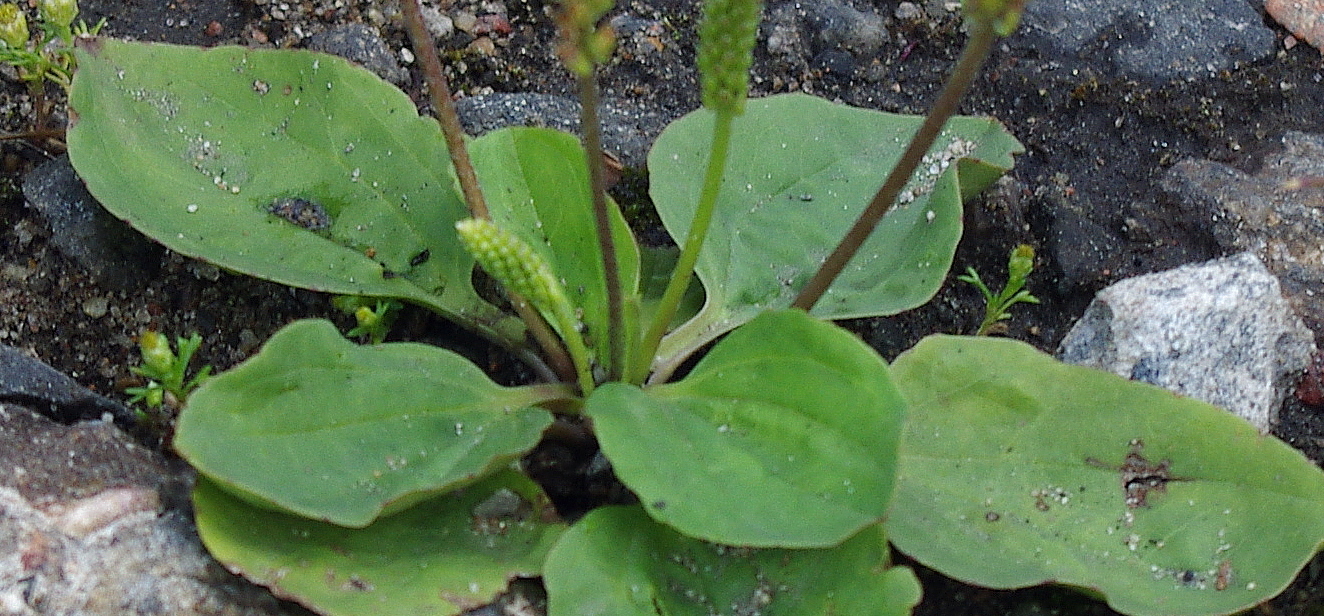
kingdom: Plantae
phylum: Tracheophyta
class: Magnoliopsida
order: Lamiales
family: Plantaginaceae
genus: Plantago
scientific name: Plantago major
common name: Common plantain
